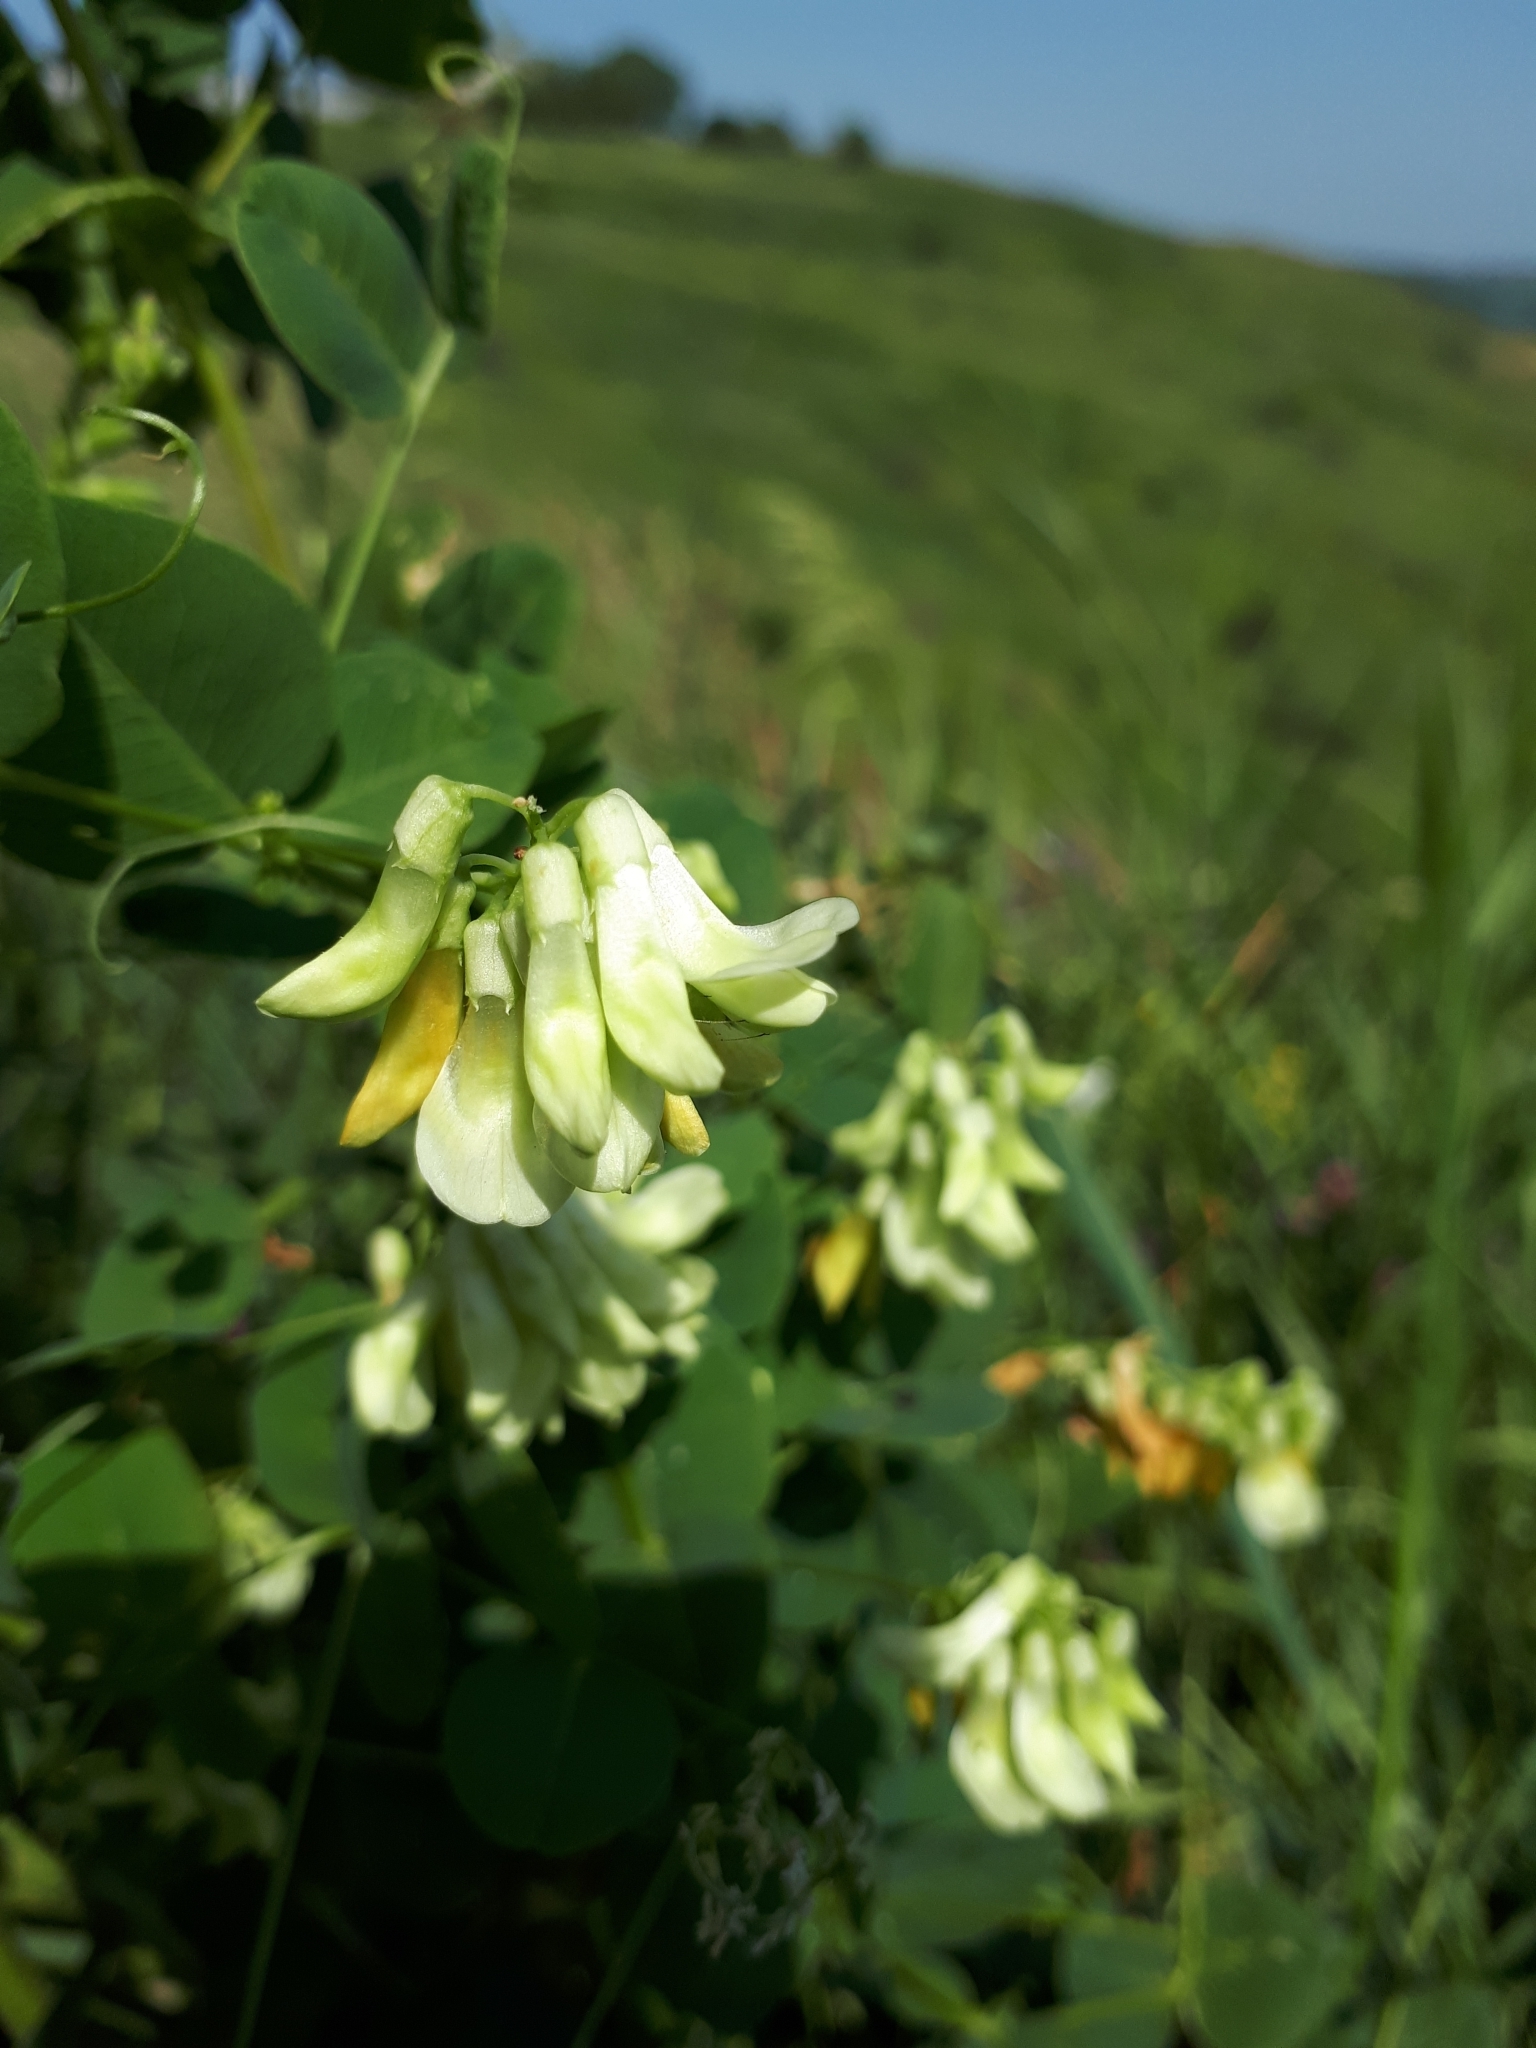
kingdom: Plantae
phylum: Tracheophyta
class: Magnoliopsida
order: Fabales
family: Fabaceae
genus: Vicia
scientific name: Vicia pisiformis
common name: Pale-flower vetch
